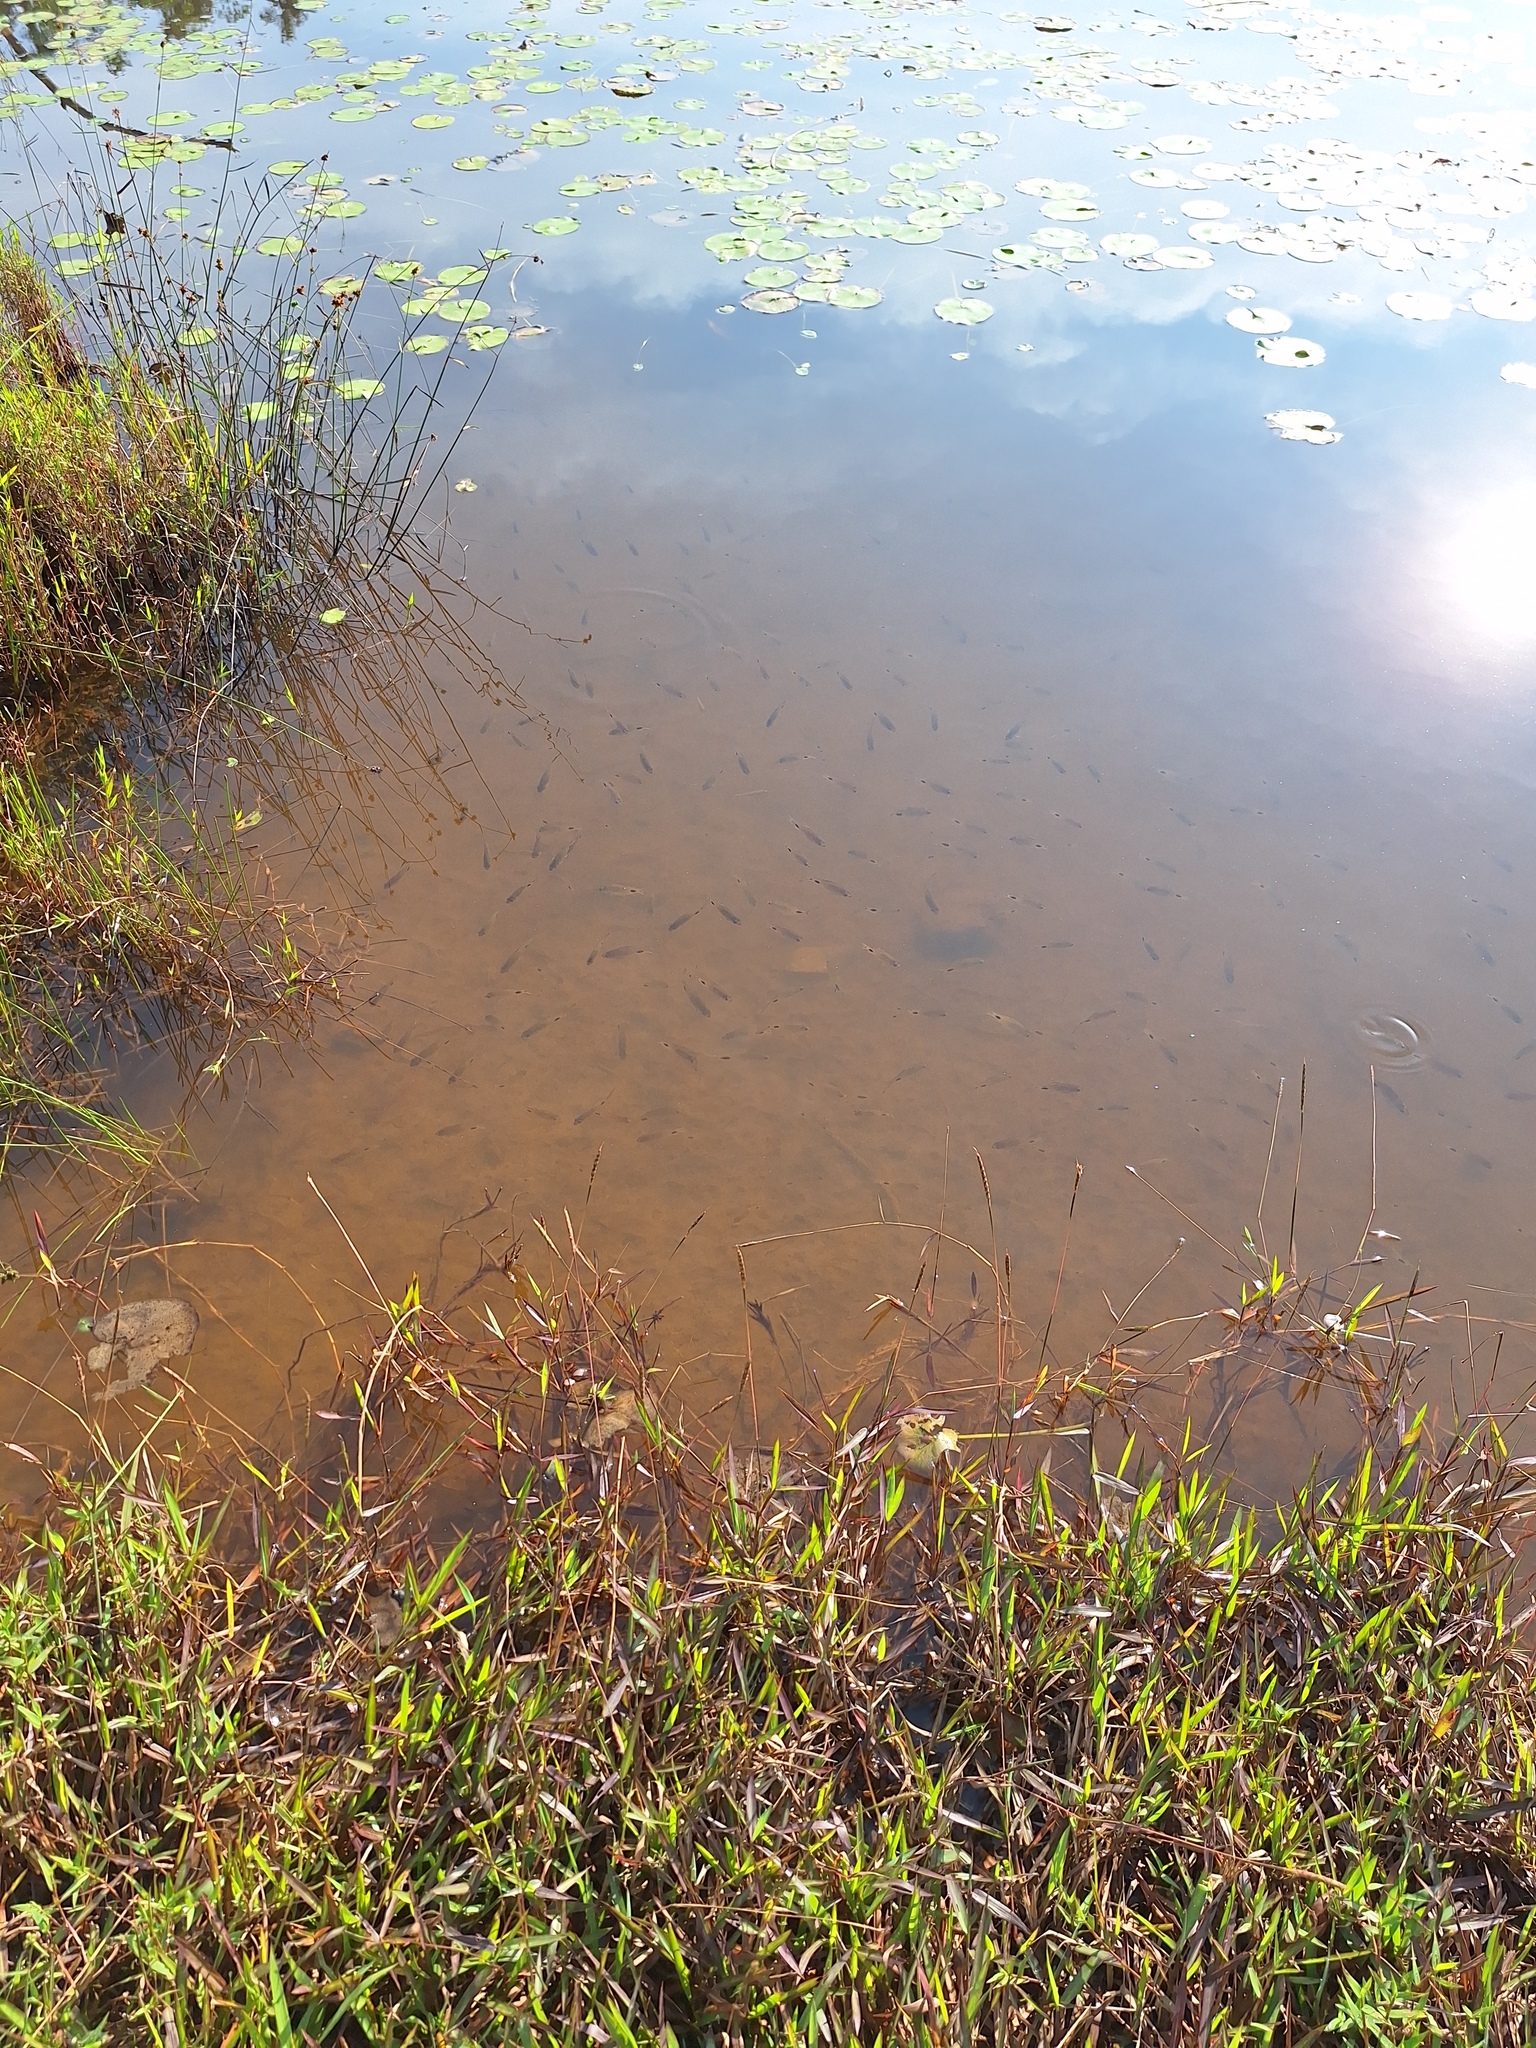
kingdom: Animalia
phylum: Chordata
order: Cypriniformes
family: Cyprinidae
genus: Dawkinsia
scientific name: Dawkinsia filamentosa
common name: Filament barb
